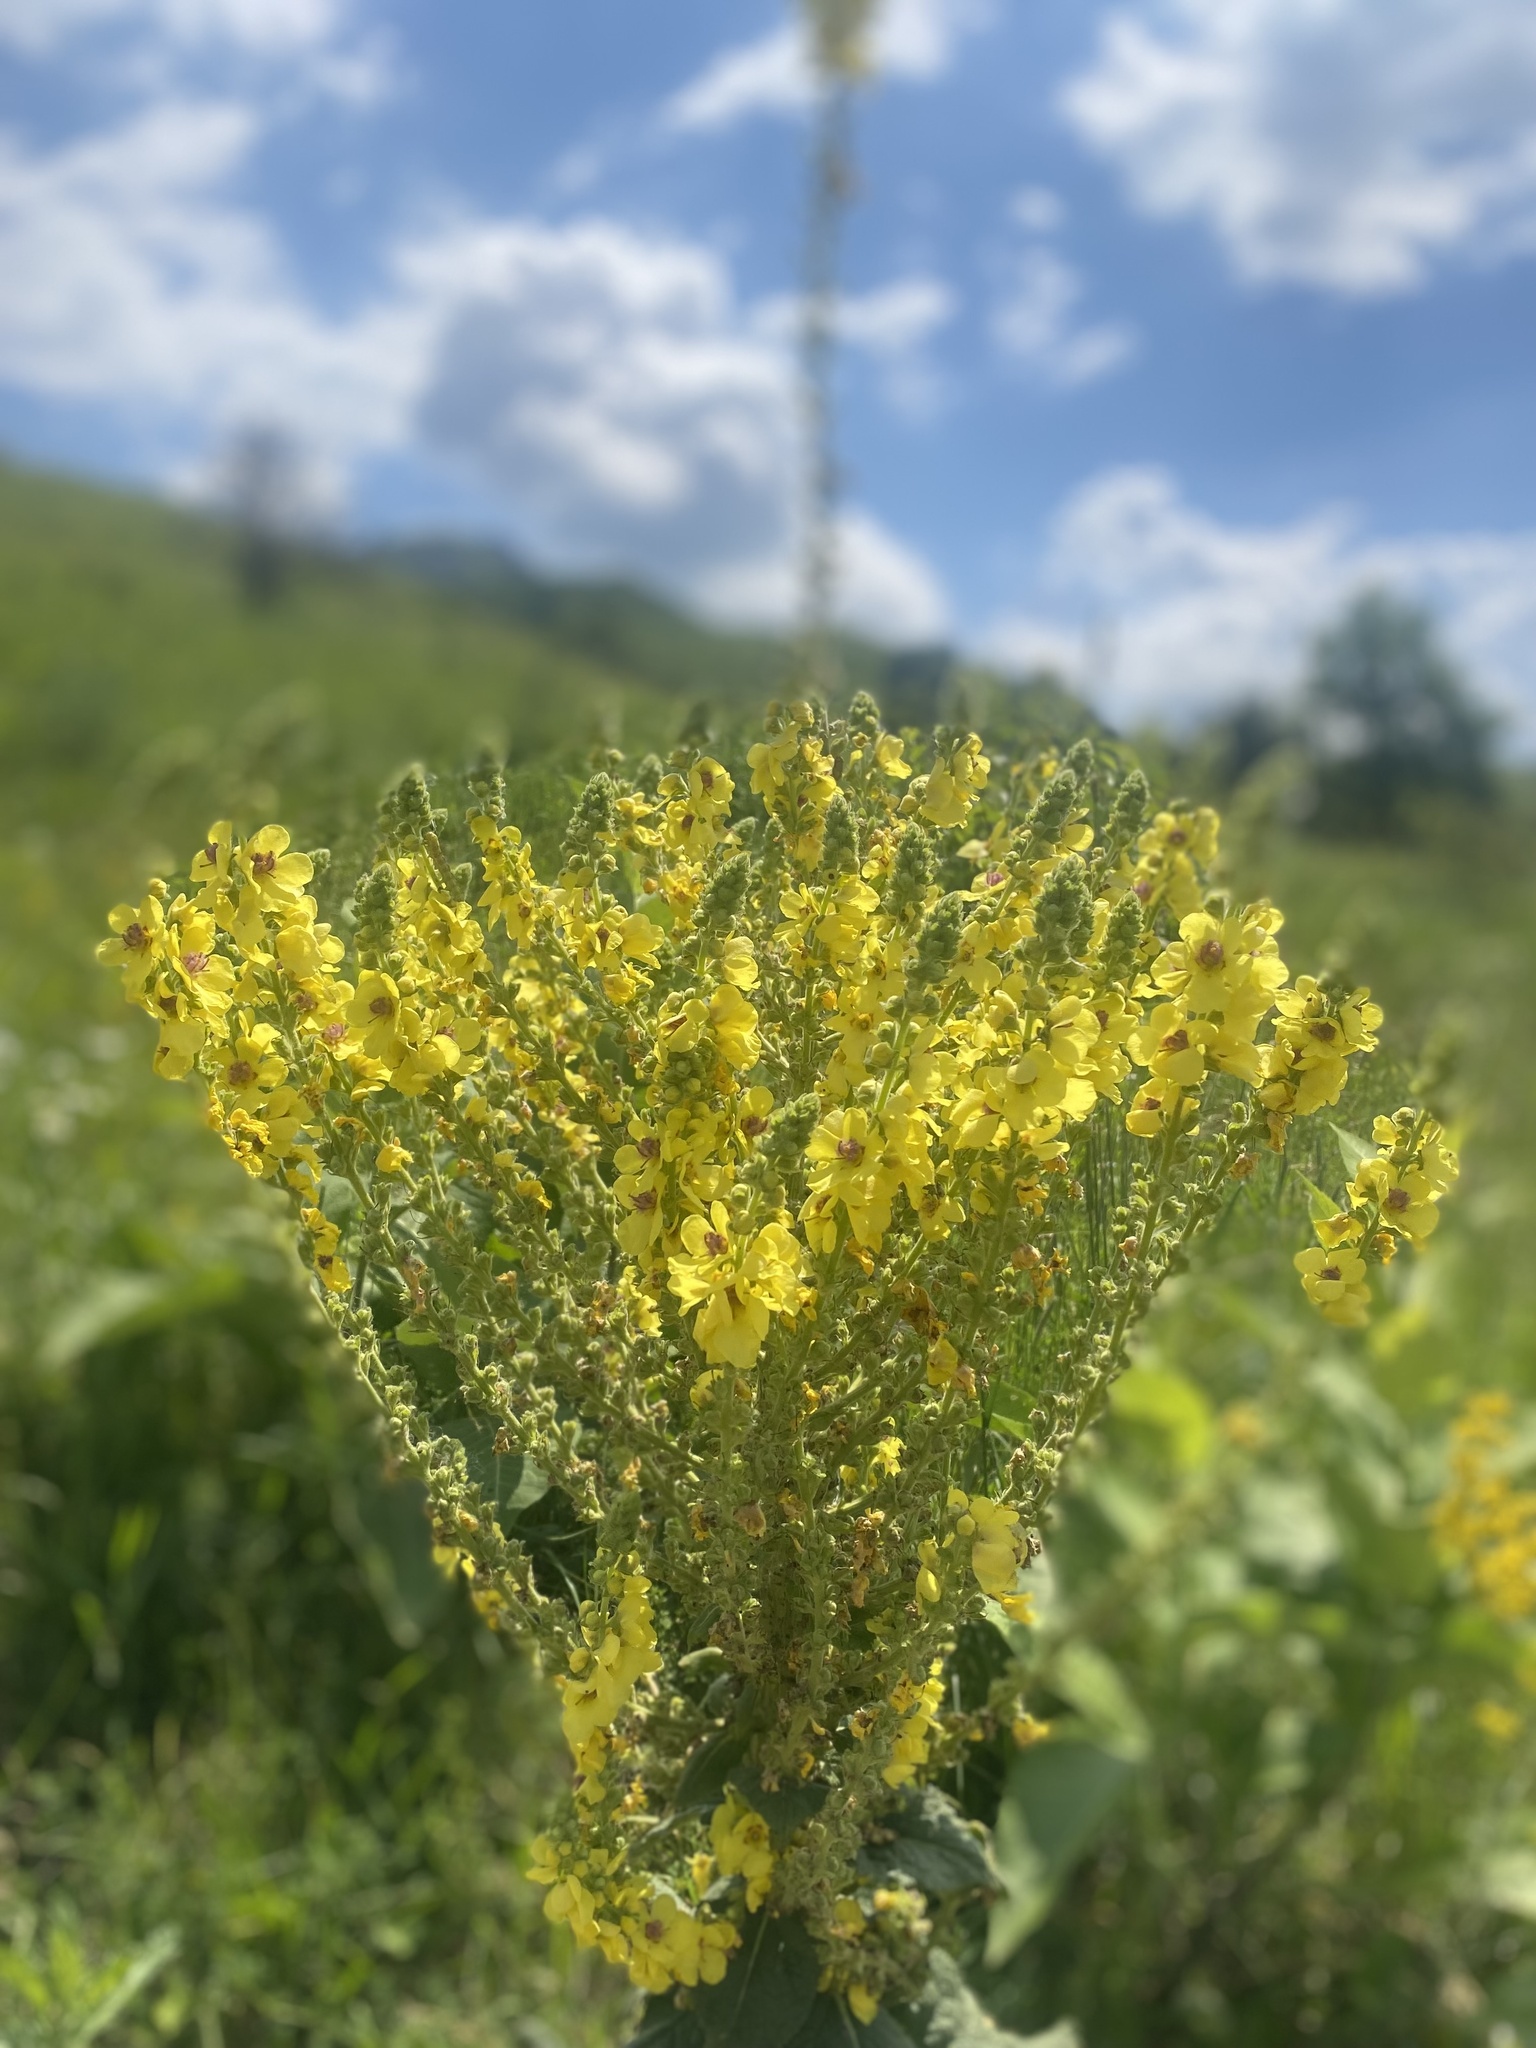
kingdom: Plantae
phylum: Tracheophyta
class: Magnoliopsida
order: Lamiales
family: Scrophulariaceae
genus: Verbascum
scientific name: Verbascum pyramidatum
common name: Caucasian mullein
